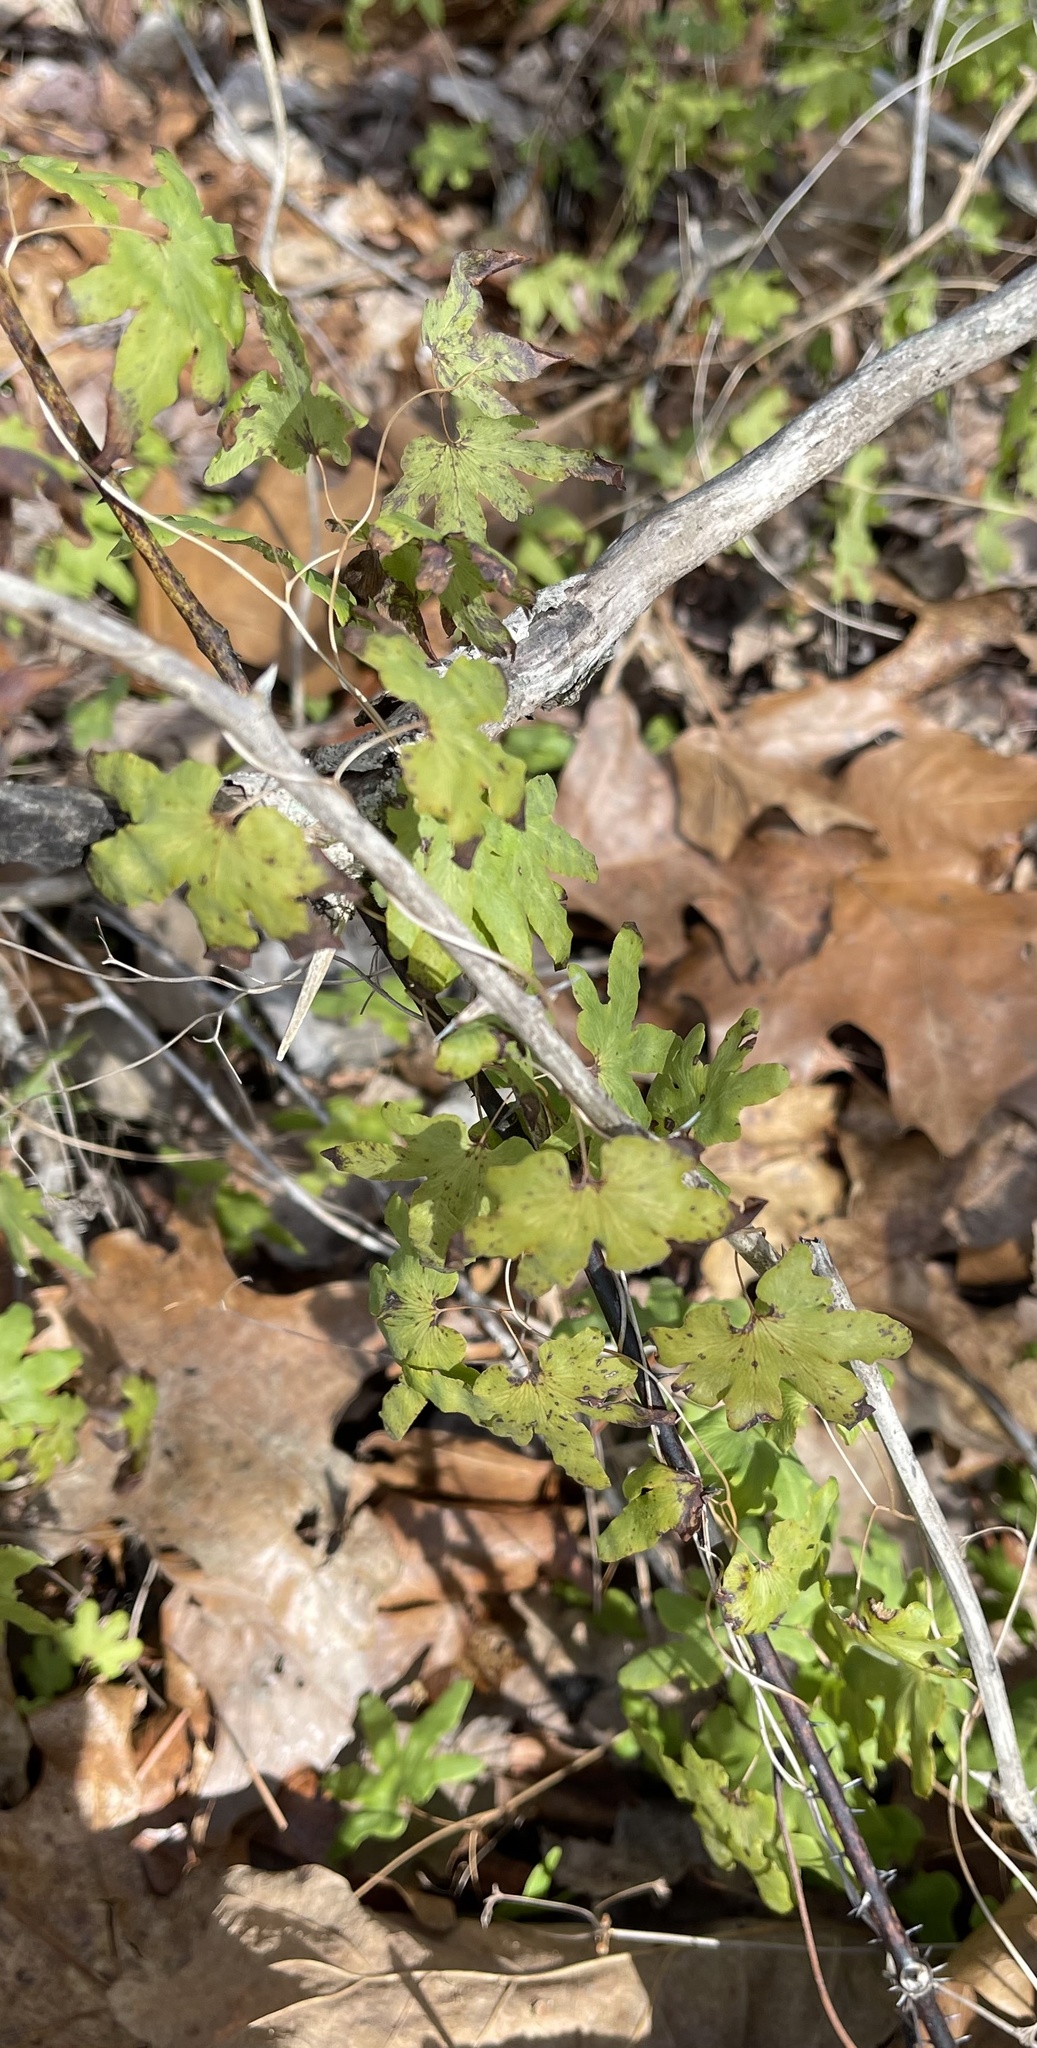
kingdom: Plantae
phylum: Tracheophyta
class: Polypodiopsida
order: Schizaeales
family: Lygodiaceae
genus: Lygodium
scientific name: Lygodium palmatum
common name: American climbing fern
